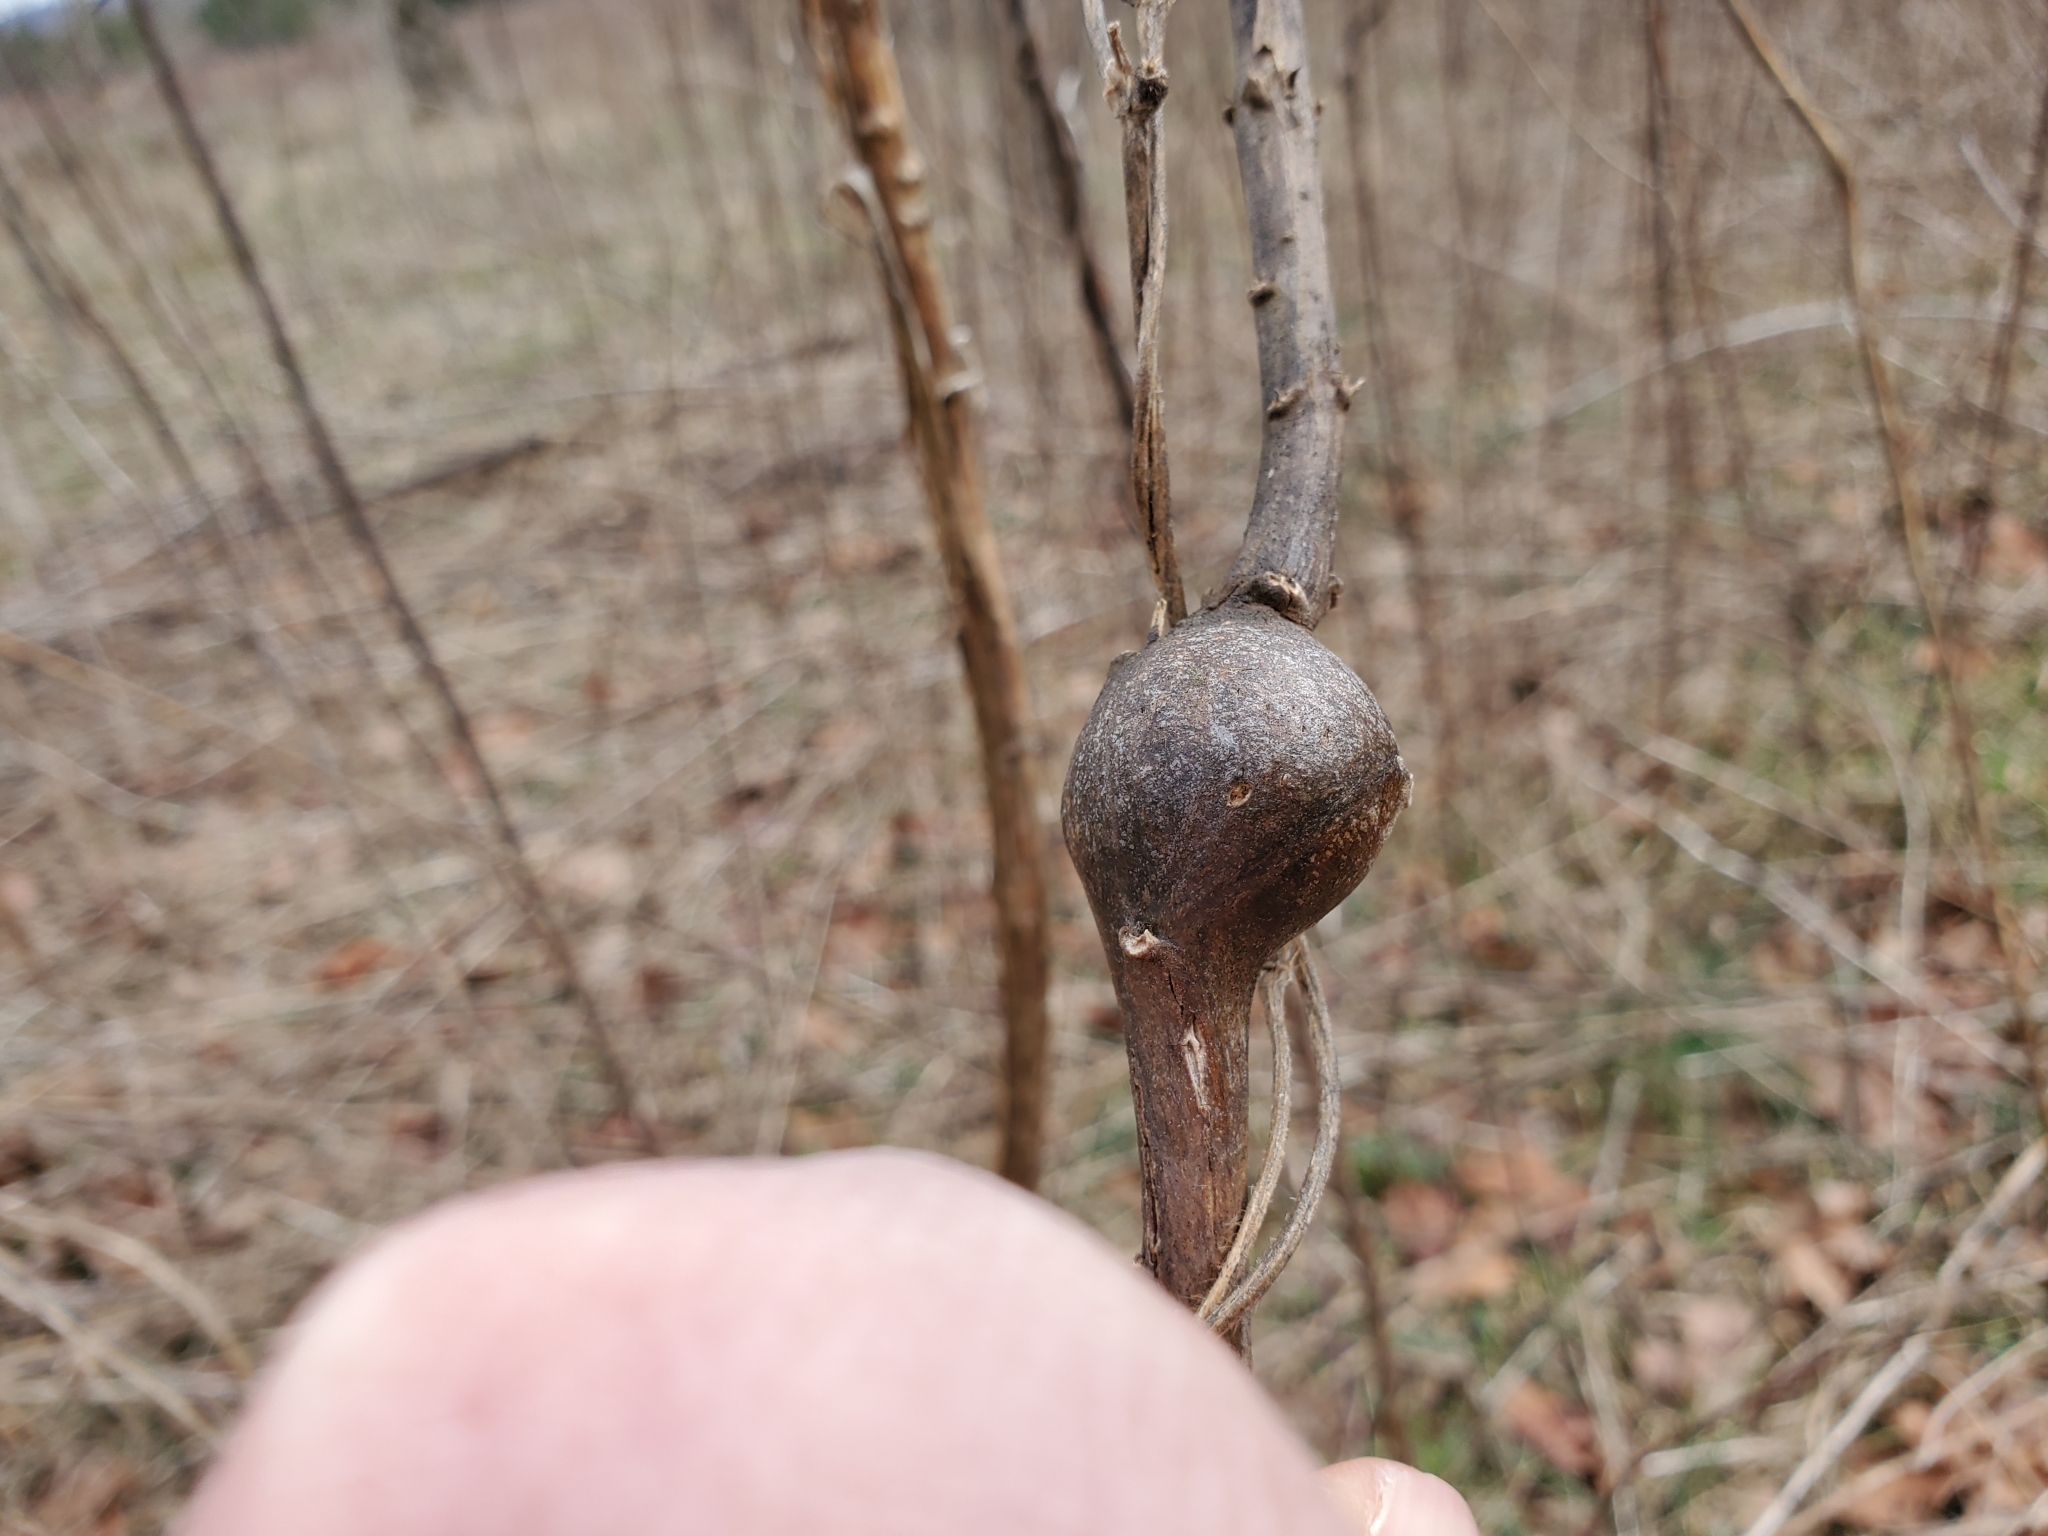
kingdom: Animalia
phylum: Arthropoda
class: Insecta
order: Diptera
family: Tephritidae
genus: Eurosta
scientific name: Eurosta solidaginis
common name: Goldenrod gall fly
